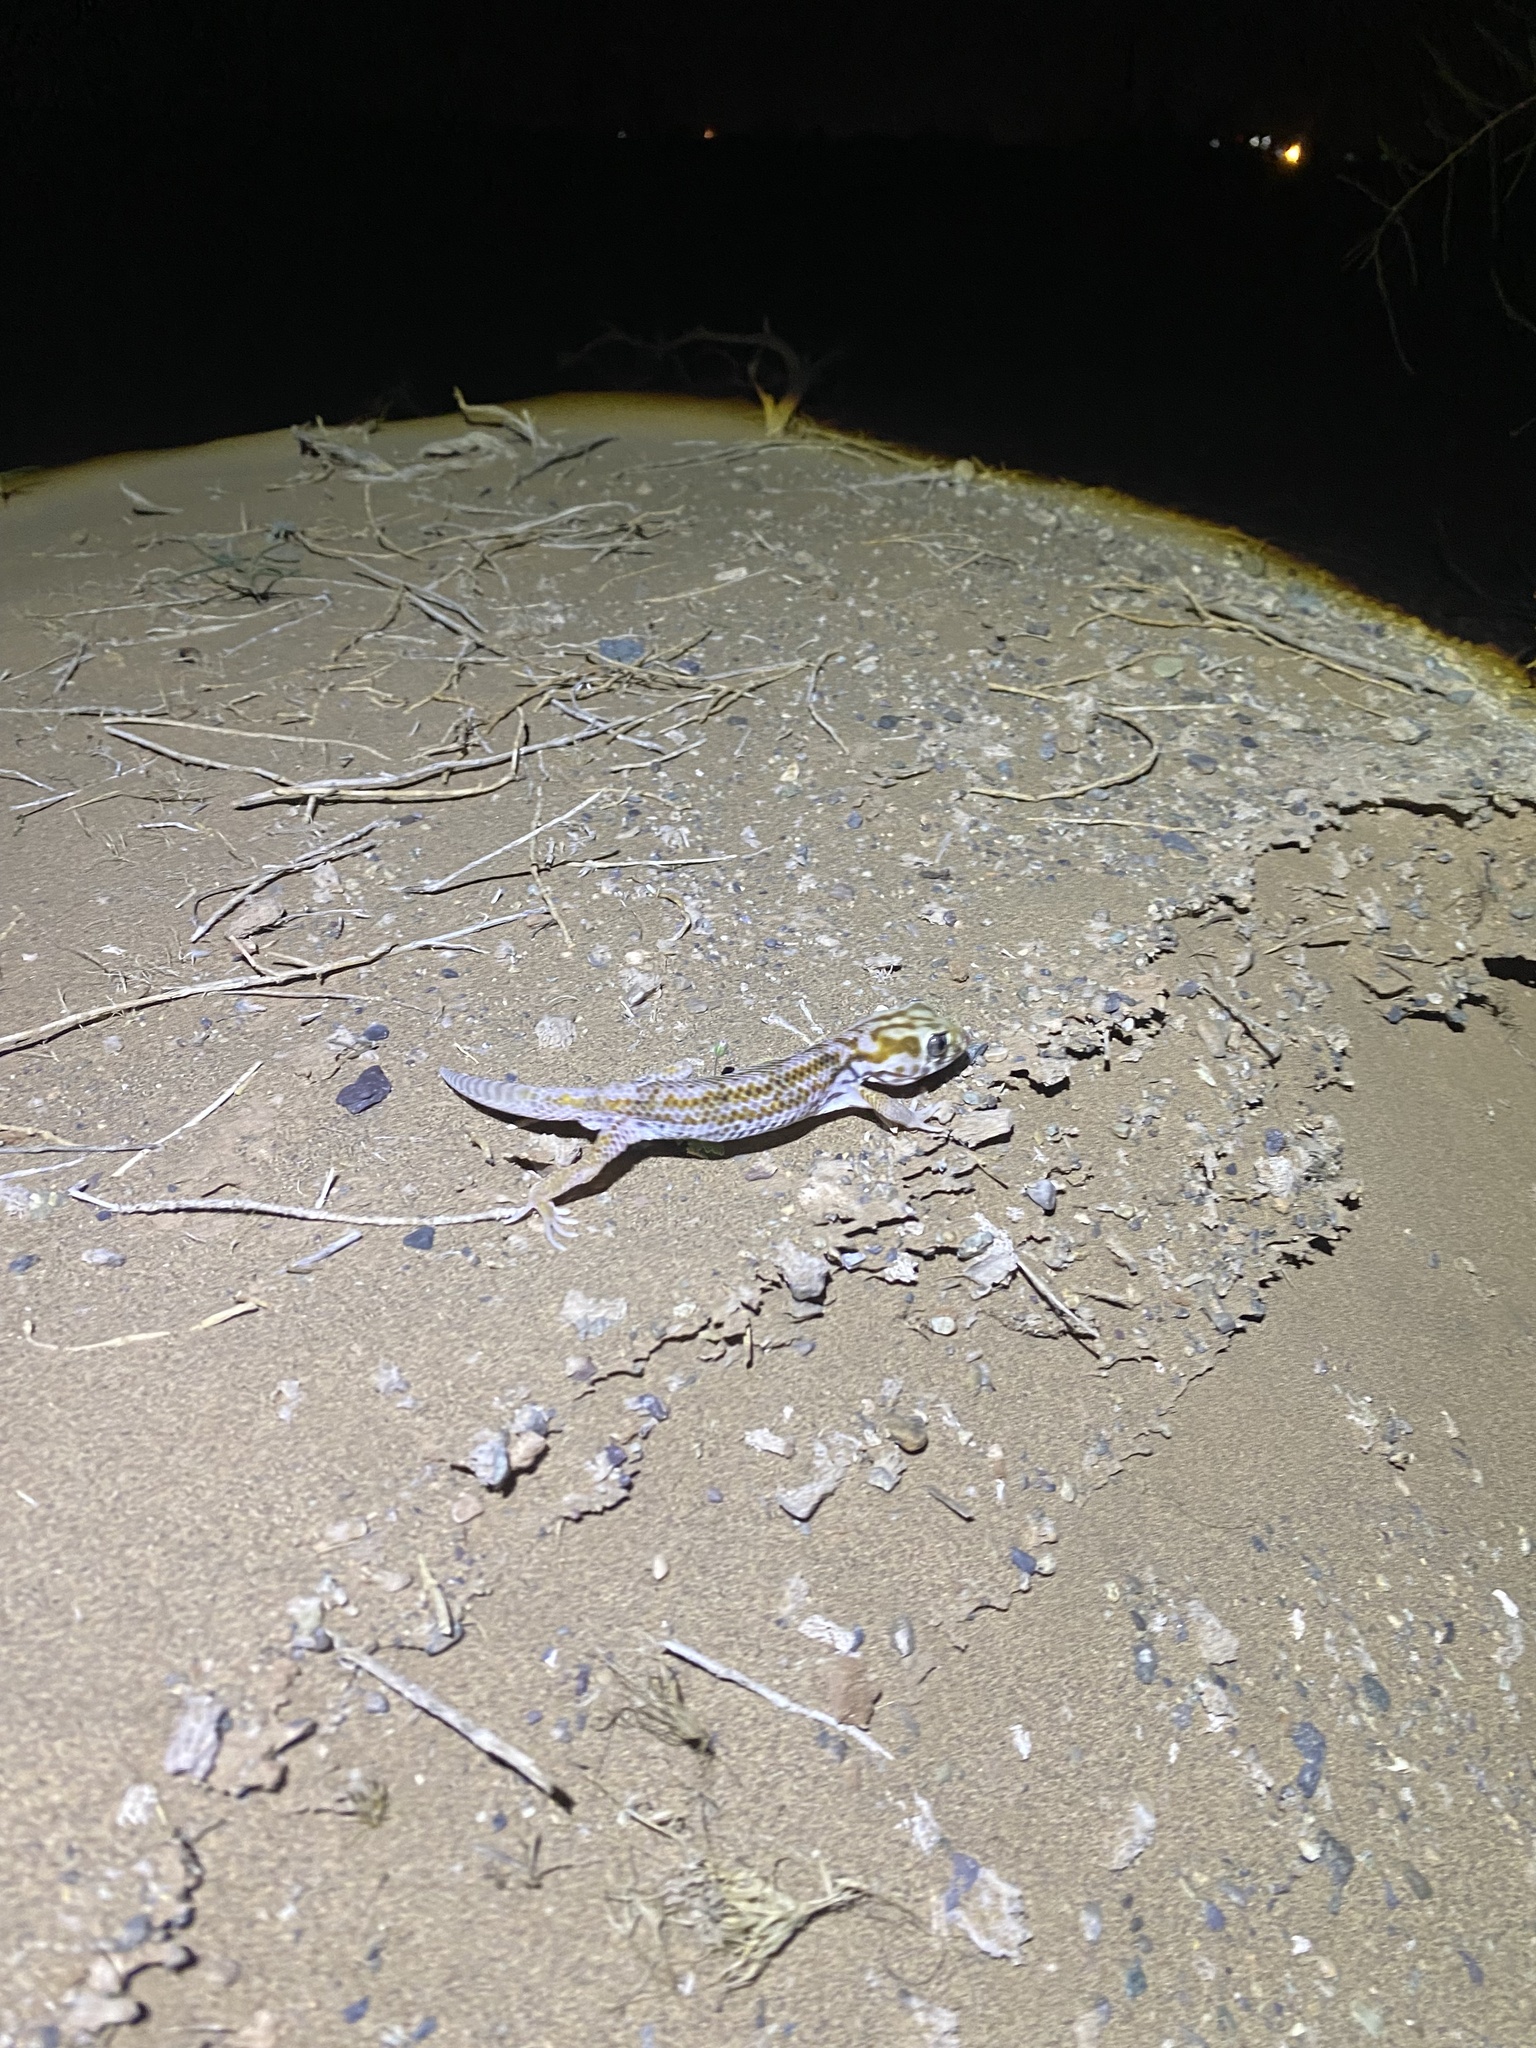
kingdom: Animalia
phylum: Chordata
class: Squamata
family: Sphaerodactylidae
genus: Teratoscincus
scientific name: Teratoscincus keyserlingii
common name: Frog-eyed gecko
